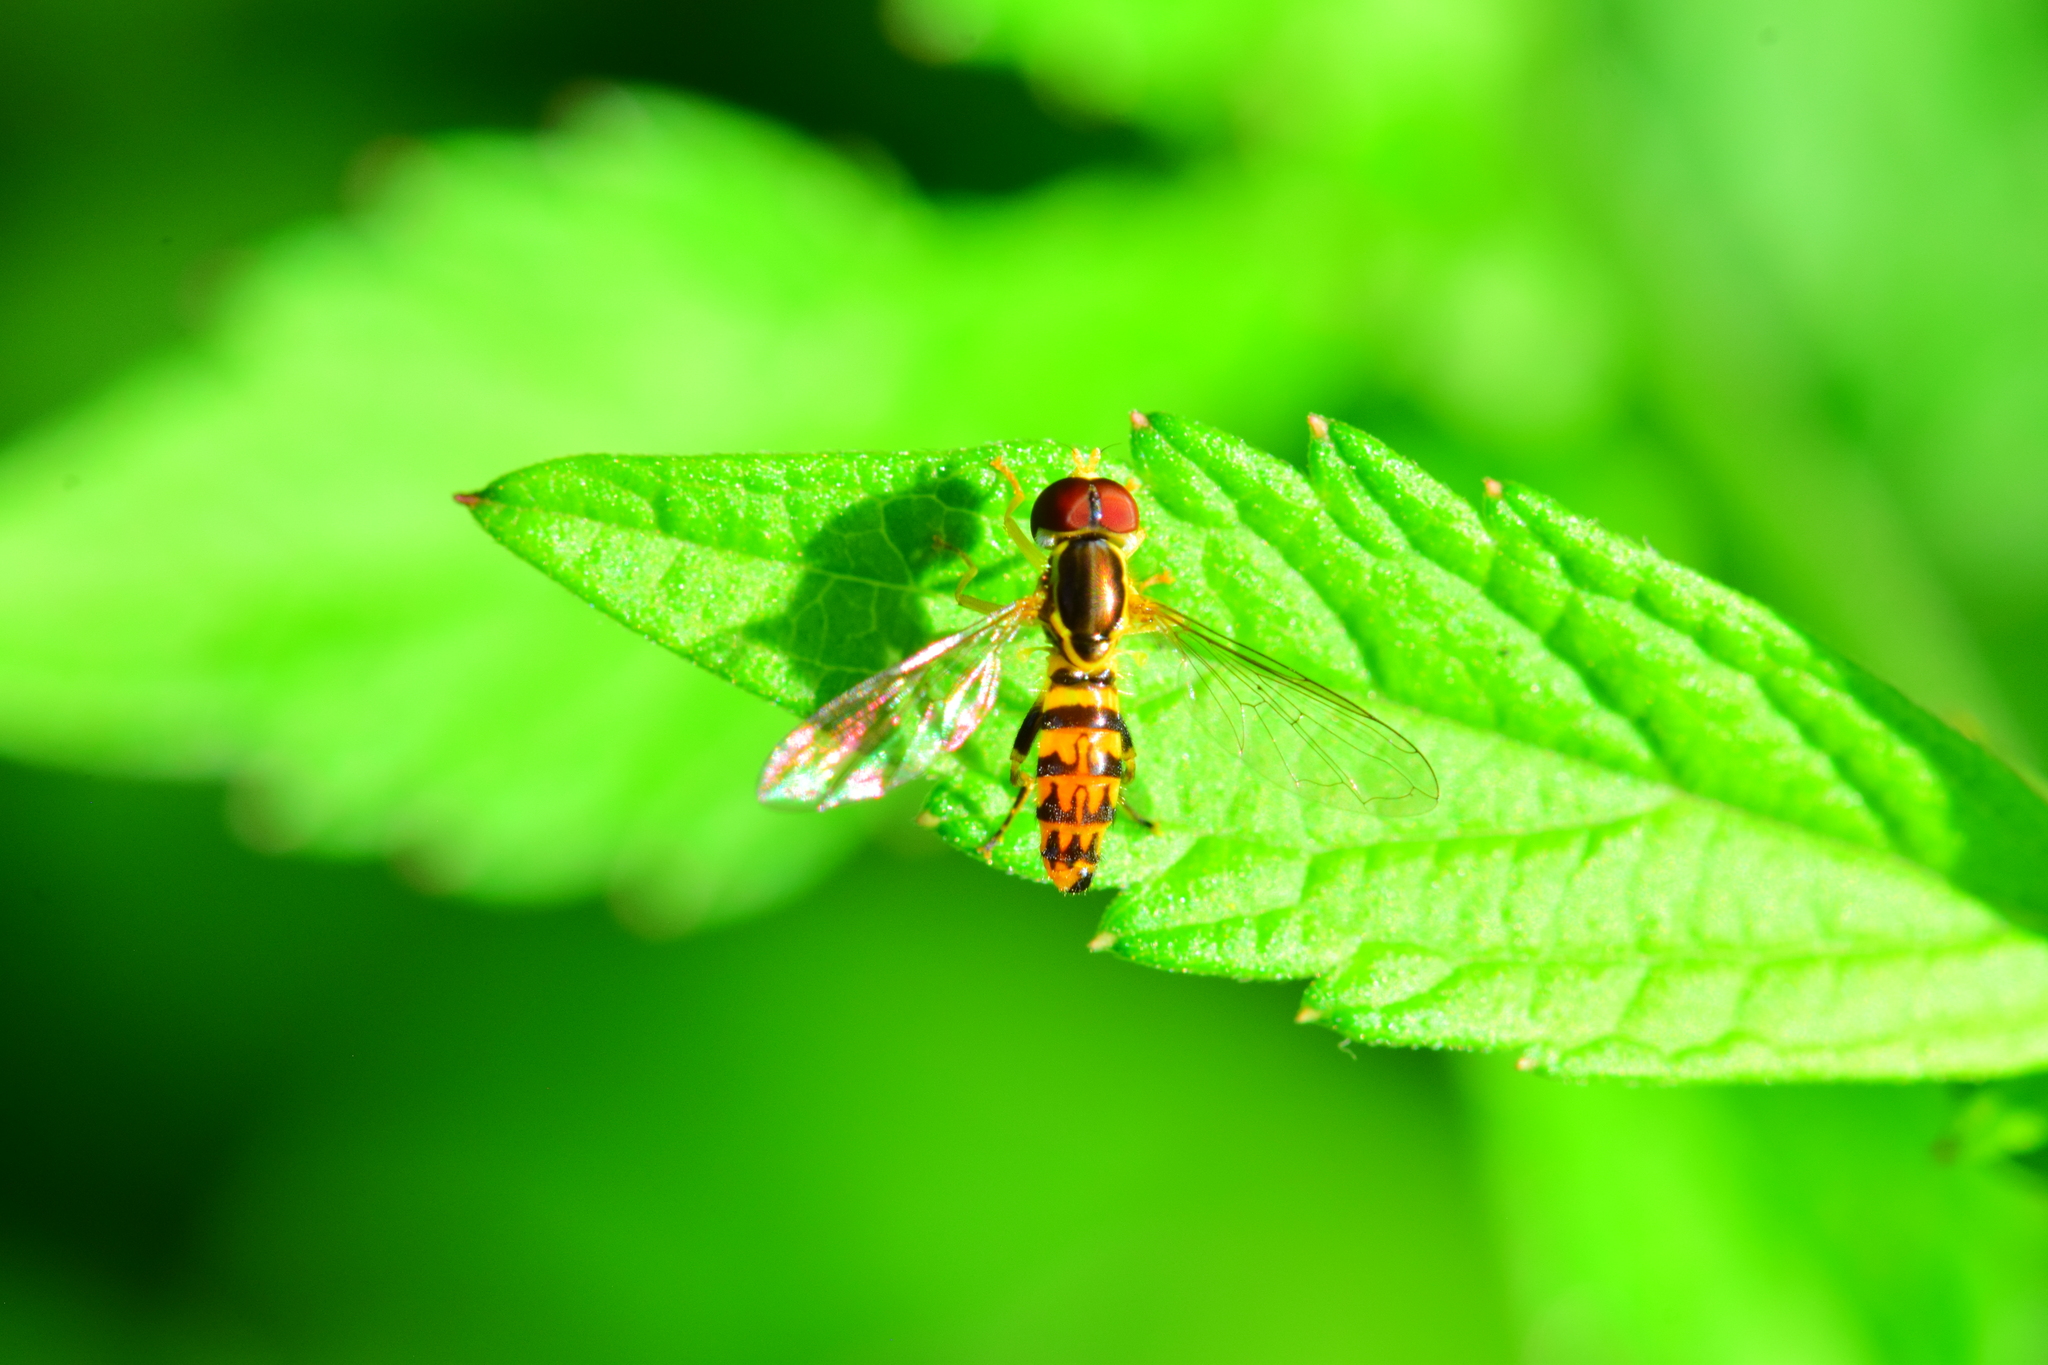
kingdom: Animalia
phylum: Arthropoda
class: Insecta
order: Diptera
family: Syrphidae
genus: Toxomerus
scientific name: Toxomerus geminatus
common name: Eastern calligrapher
